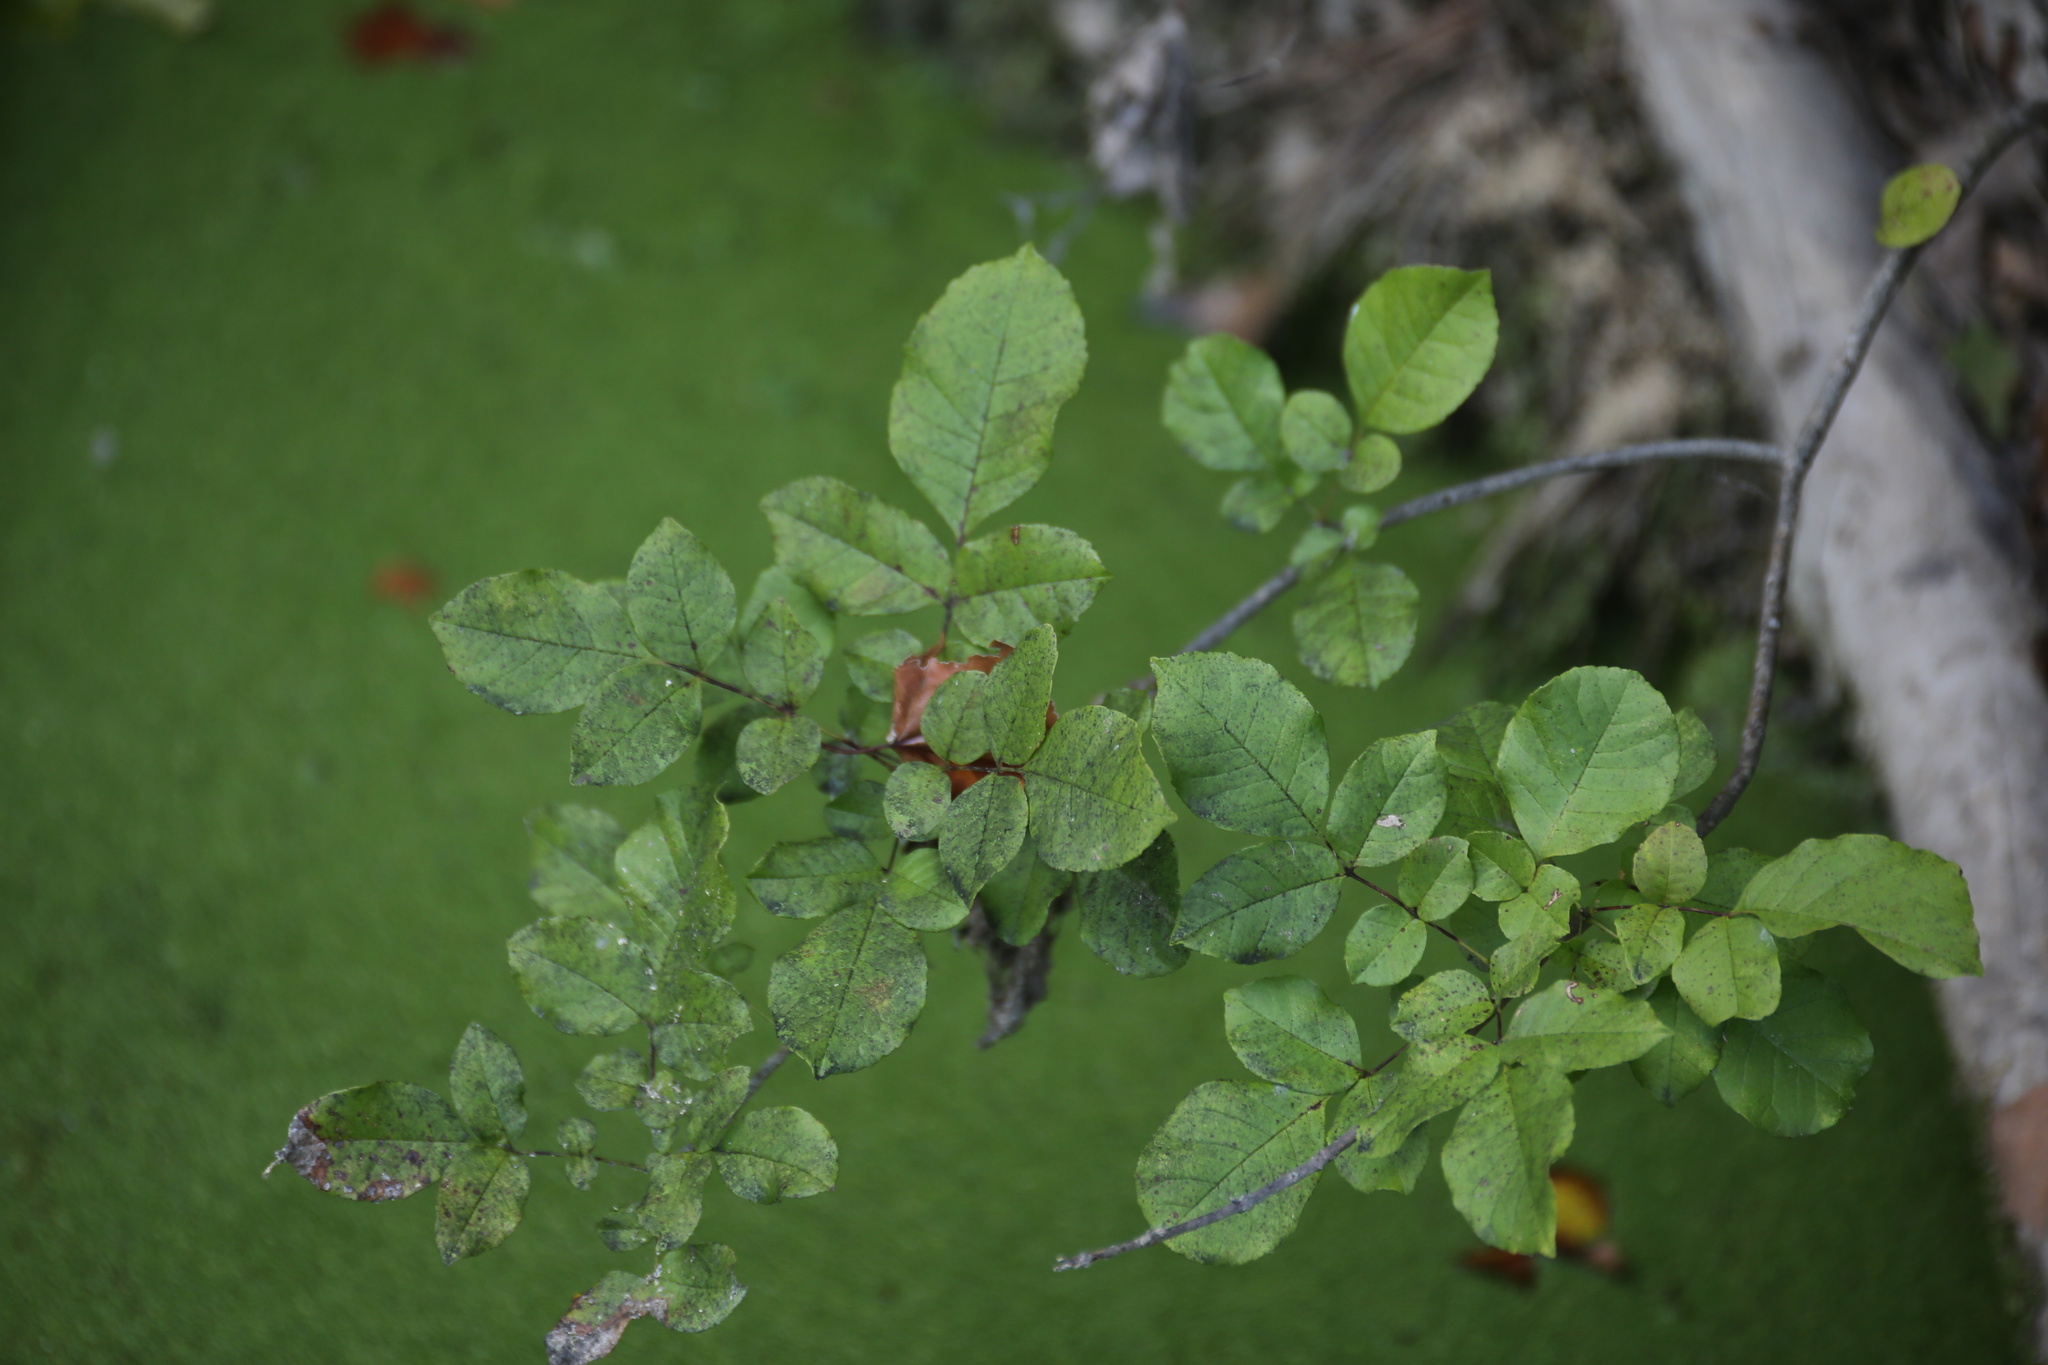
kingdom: Plantae
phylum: Tracheophyta
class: Magnoliopsida
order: Lamiales
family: Oleaceae
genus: Fraxinus
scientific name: Fraxinus albicans
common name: Texas ash
